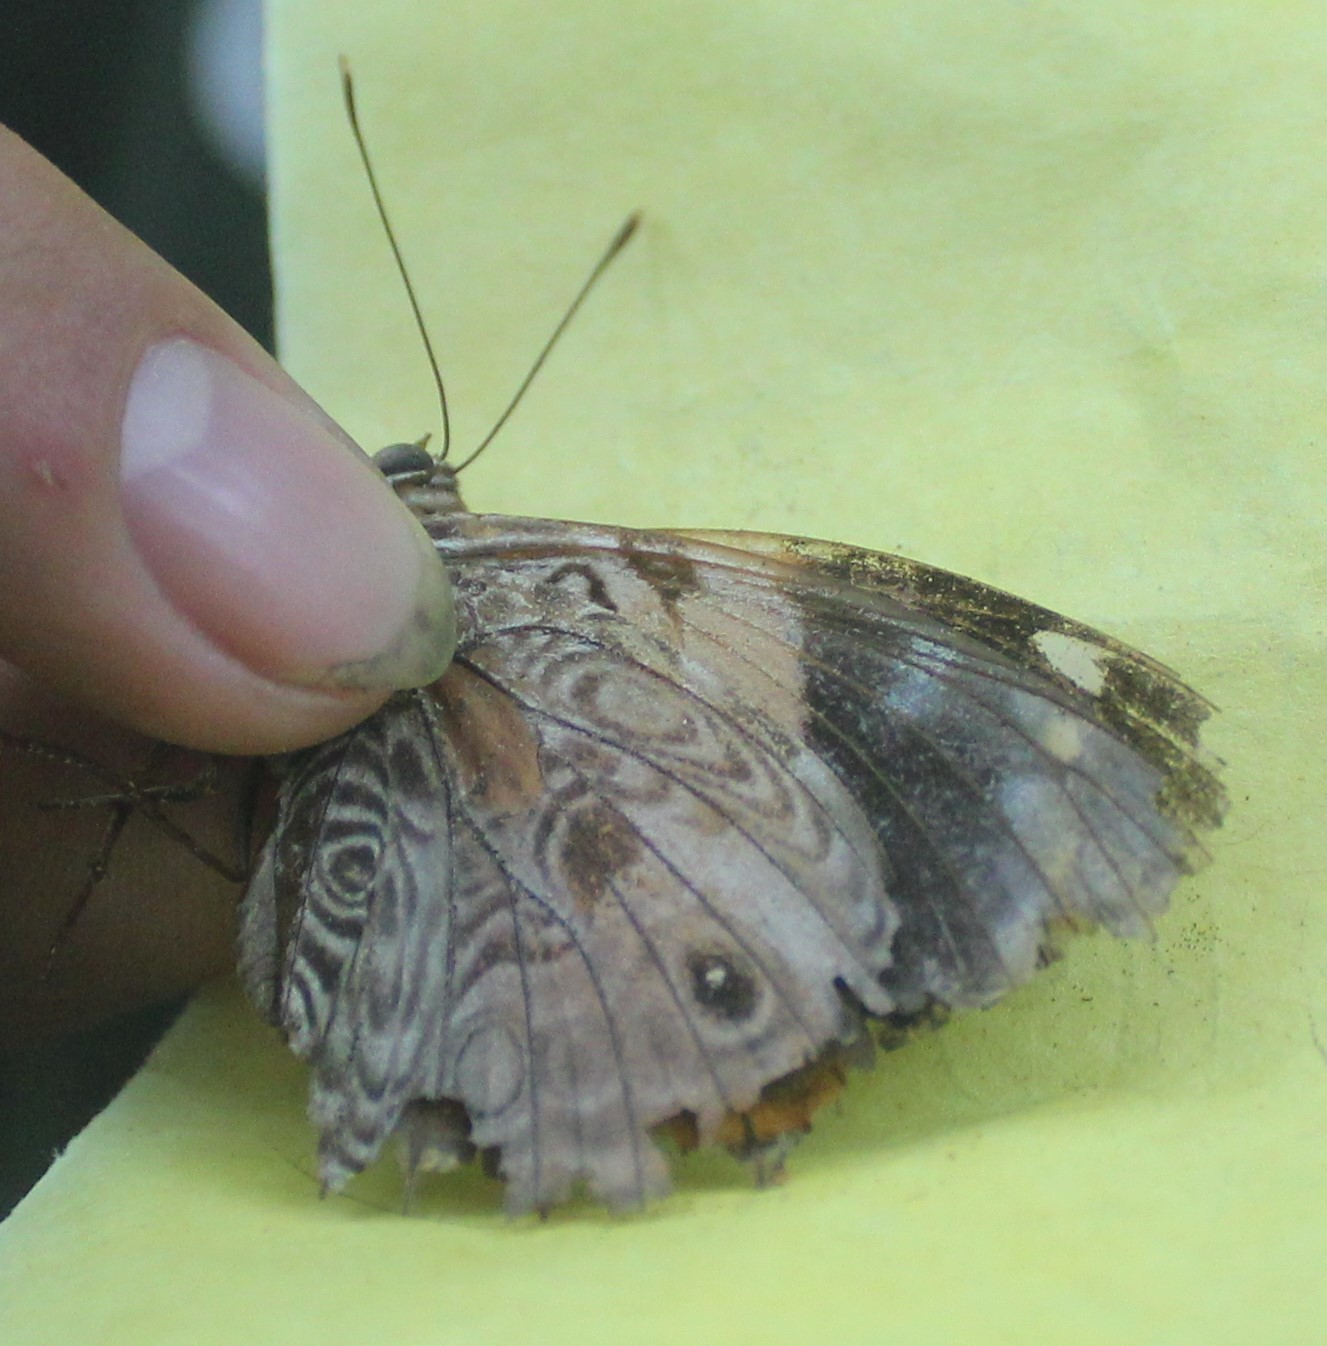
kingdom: Animalia
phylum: Arthropoda
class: Insecta
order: Lepidoptera
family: Nymphalidae
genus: Smyrna
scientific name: Smyrna blomfildia
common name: Blomfild's beauty
